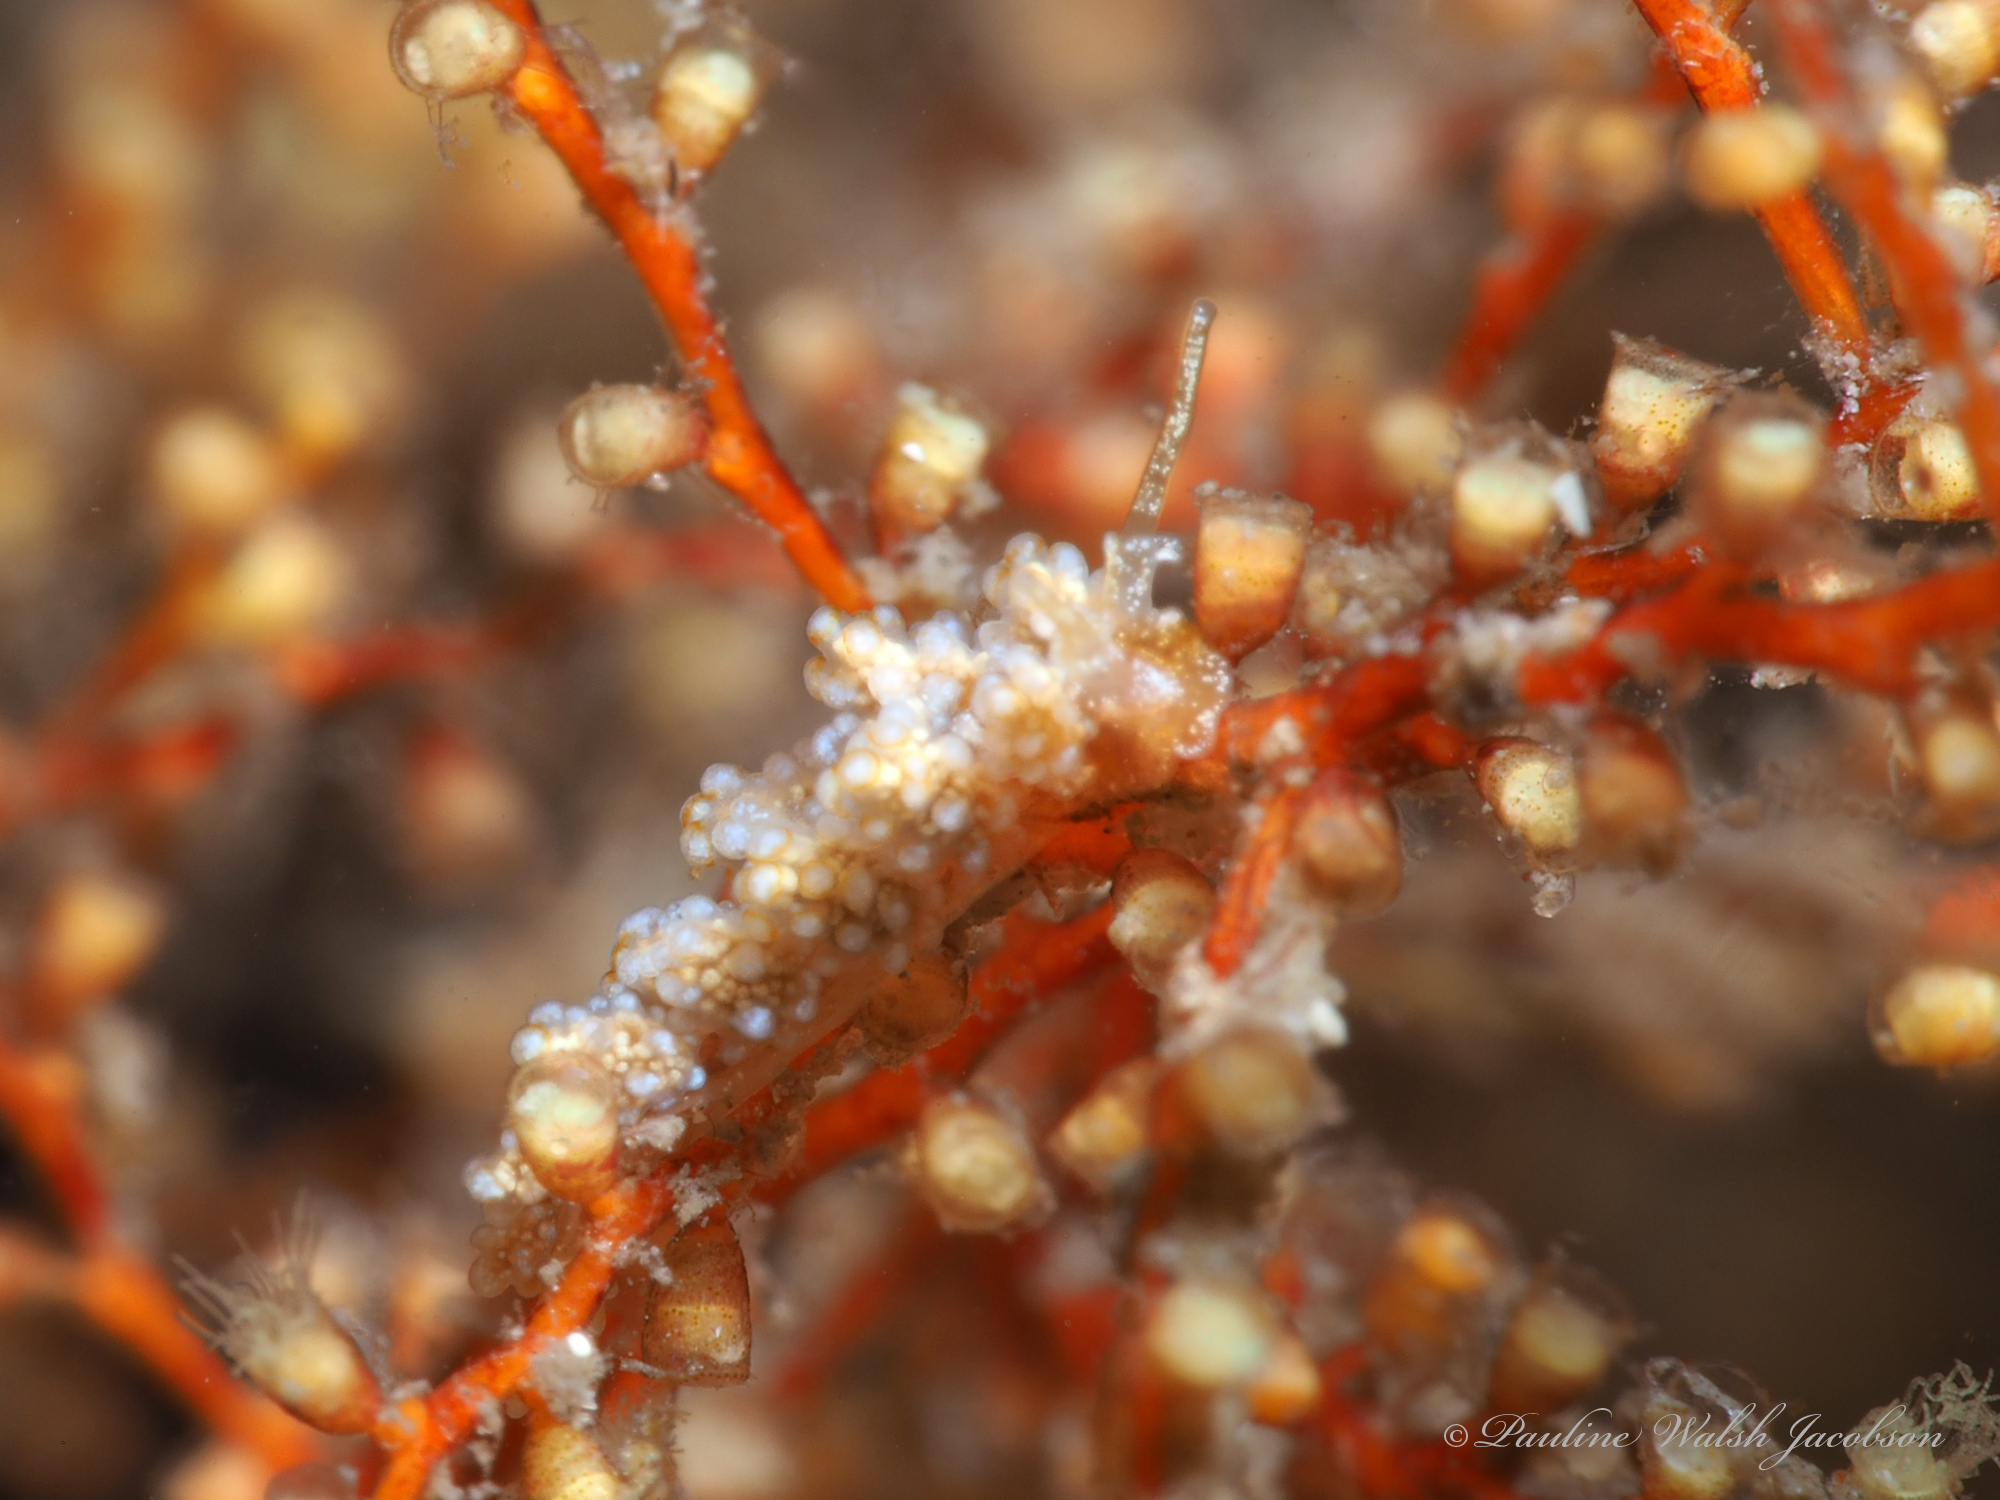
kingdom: Animalia
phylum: Mollusca
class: Gastropoda
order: Nudibranchia
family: Dotidae
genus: Doto
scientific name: Doto torrelavega
